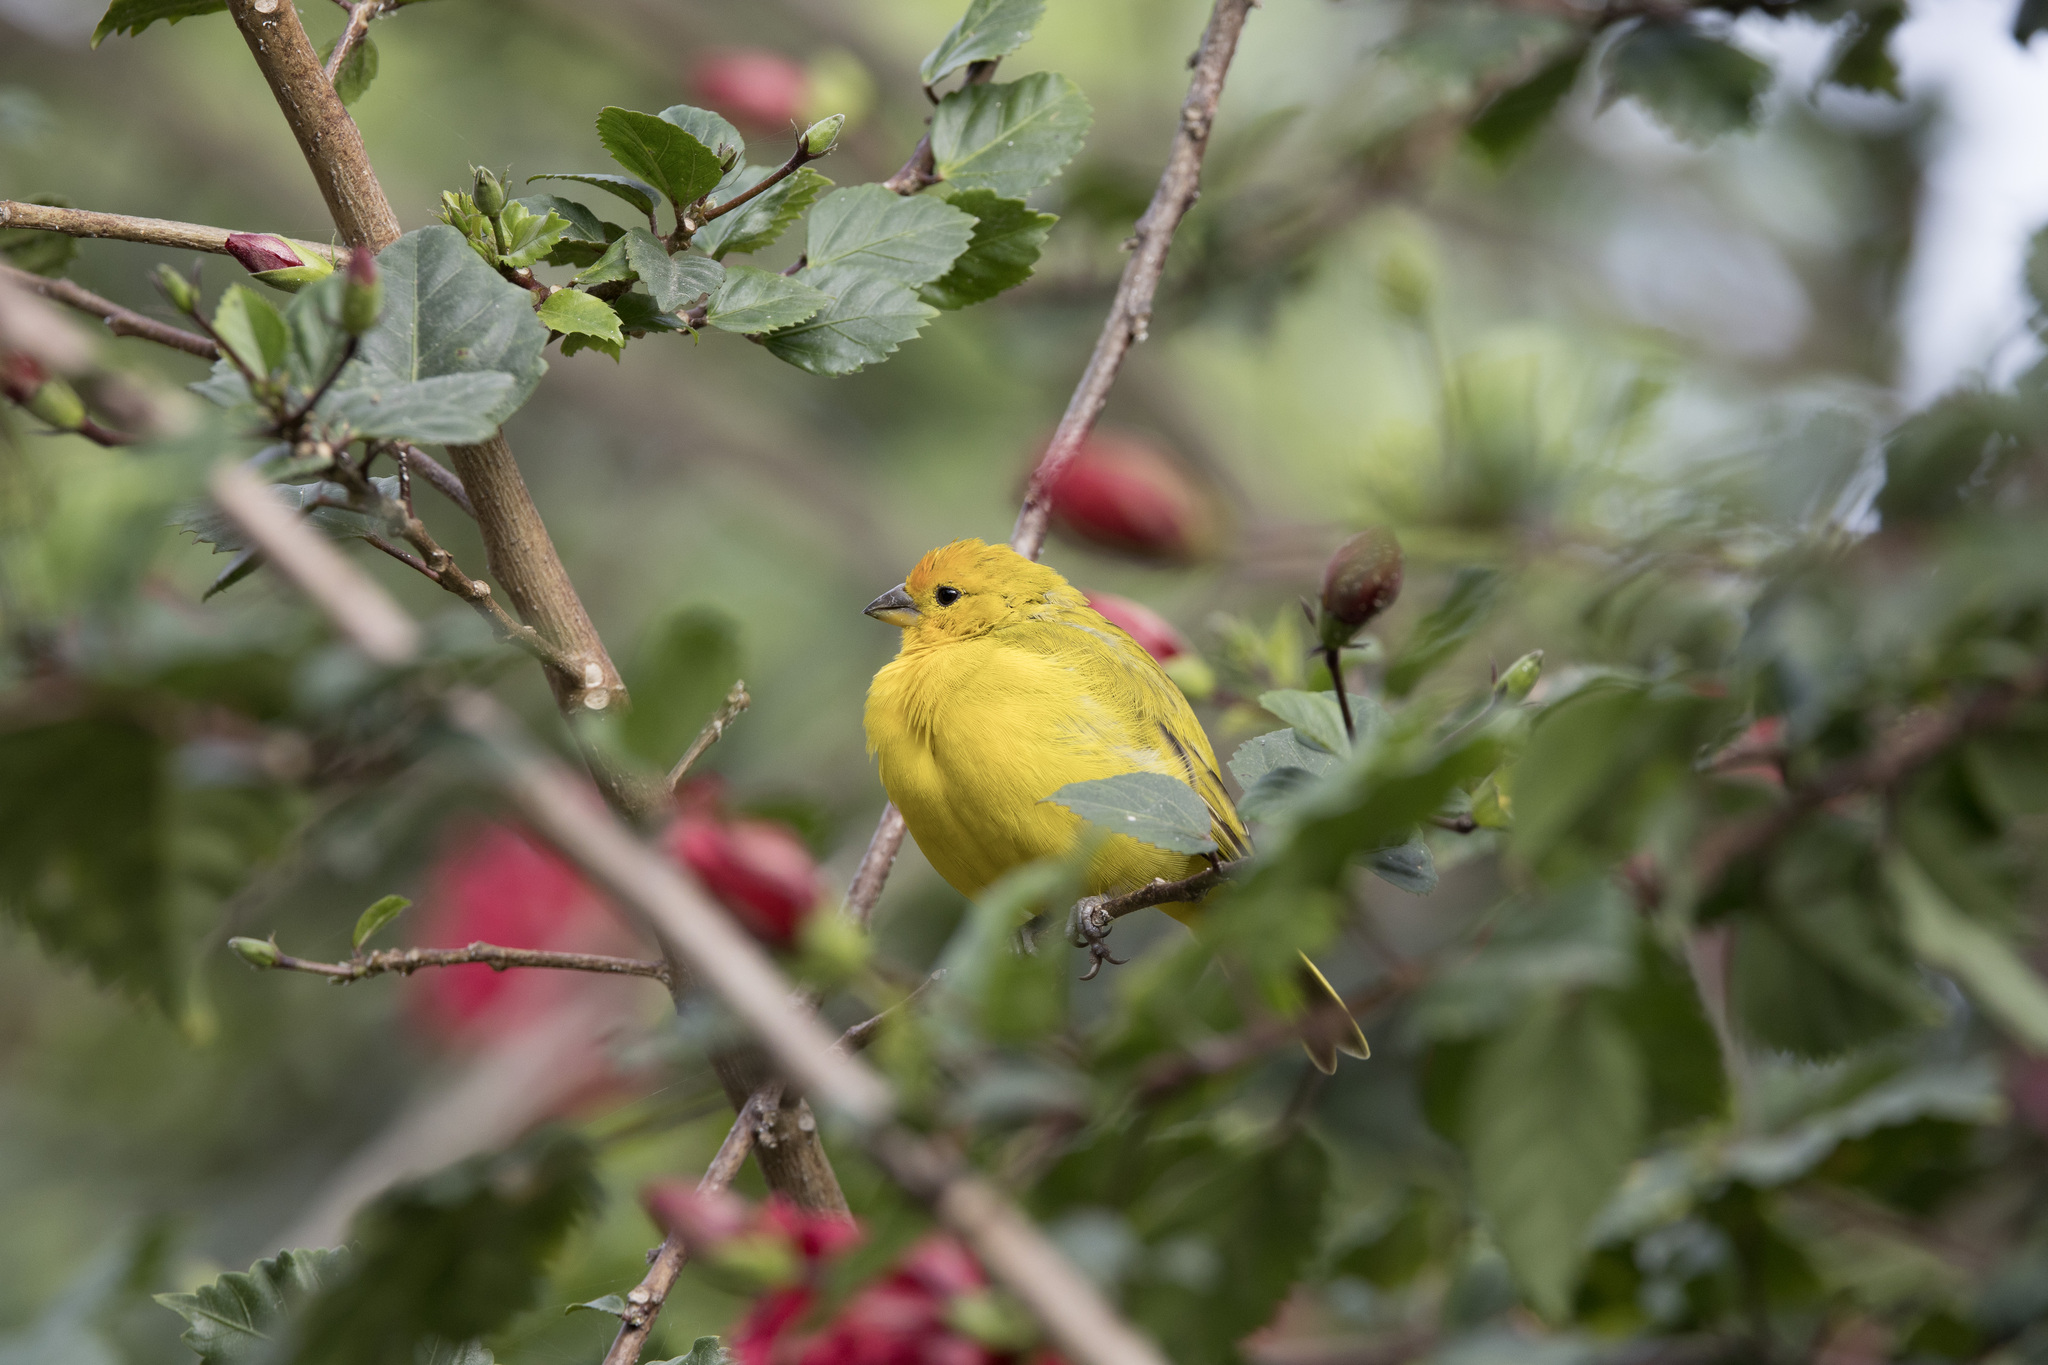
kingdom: Animalia
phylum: Chordata
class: Aves
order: Passeriformes
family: Thraupidae
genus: Sicalis
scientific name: Sicalis flaveola
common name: Saffron finch
